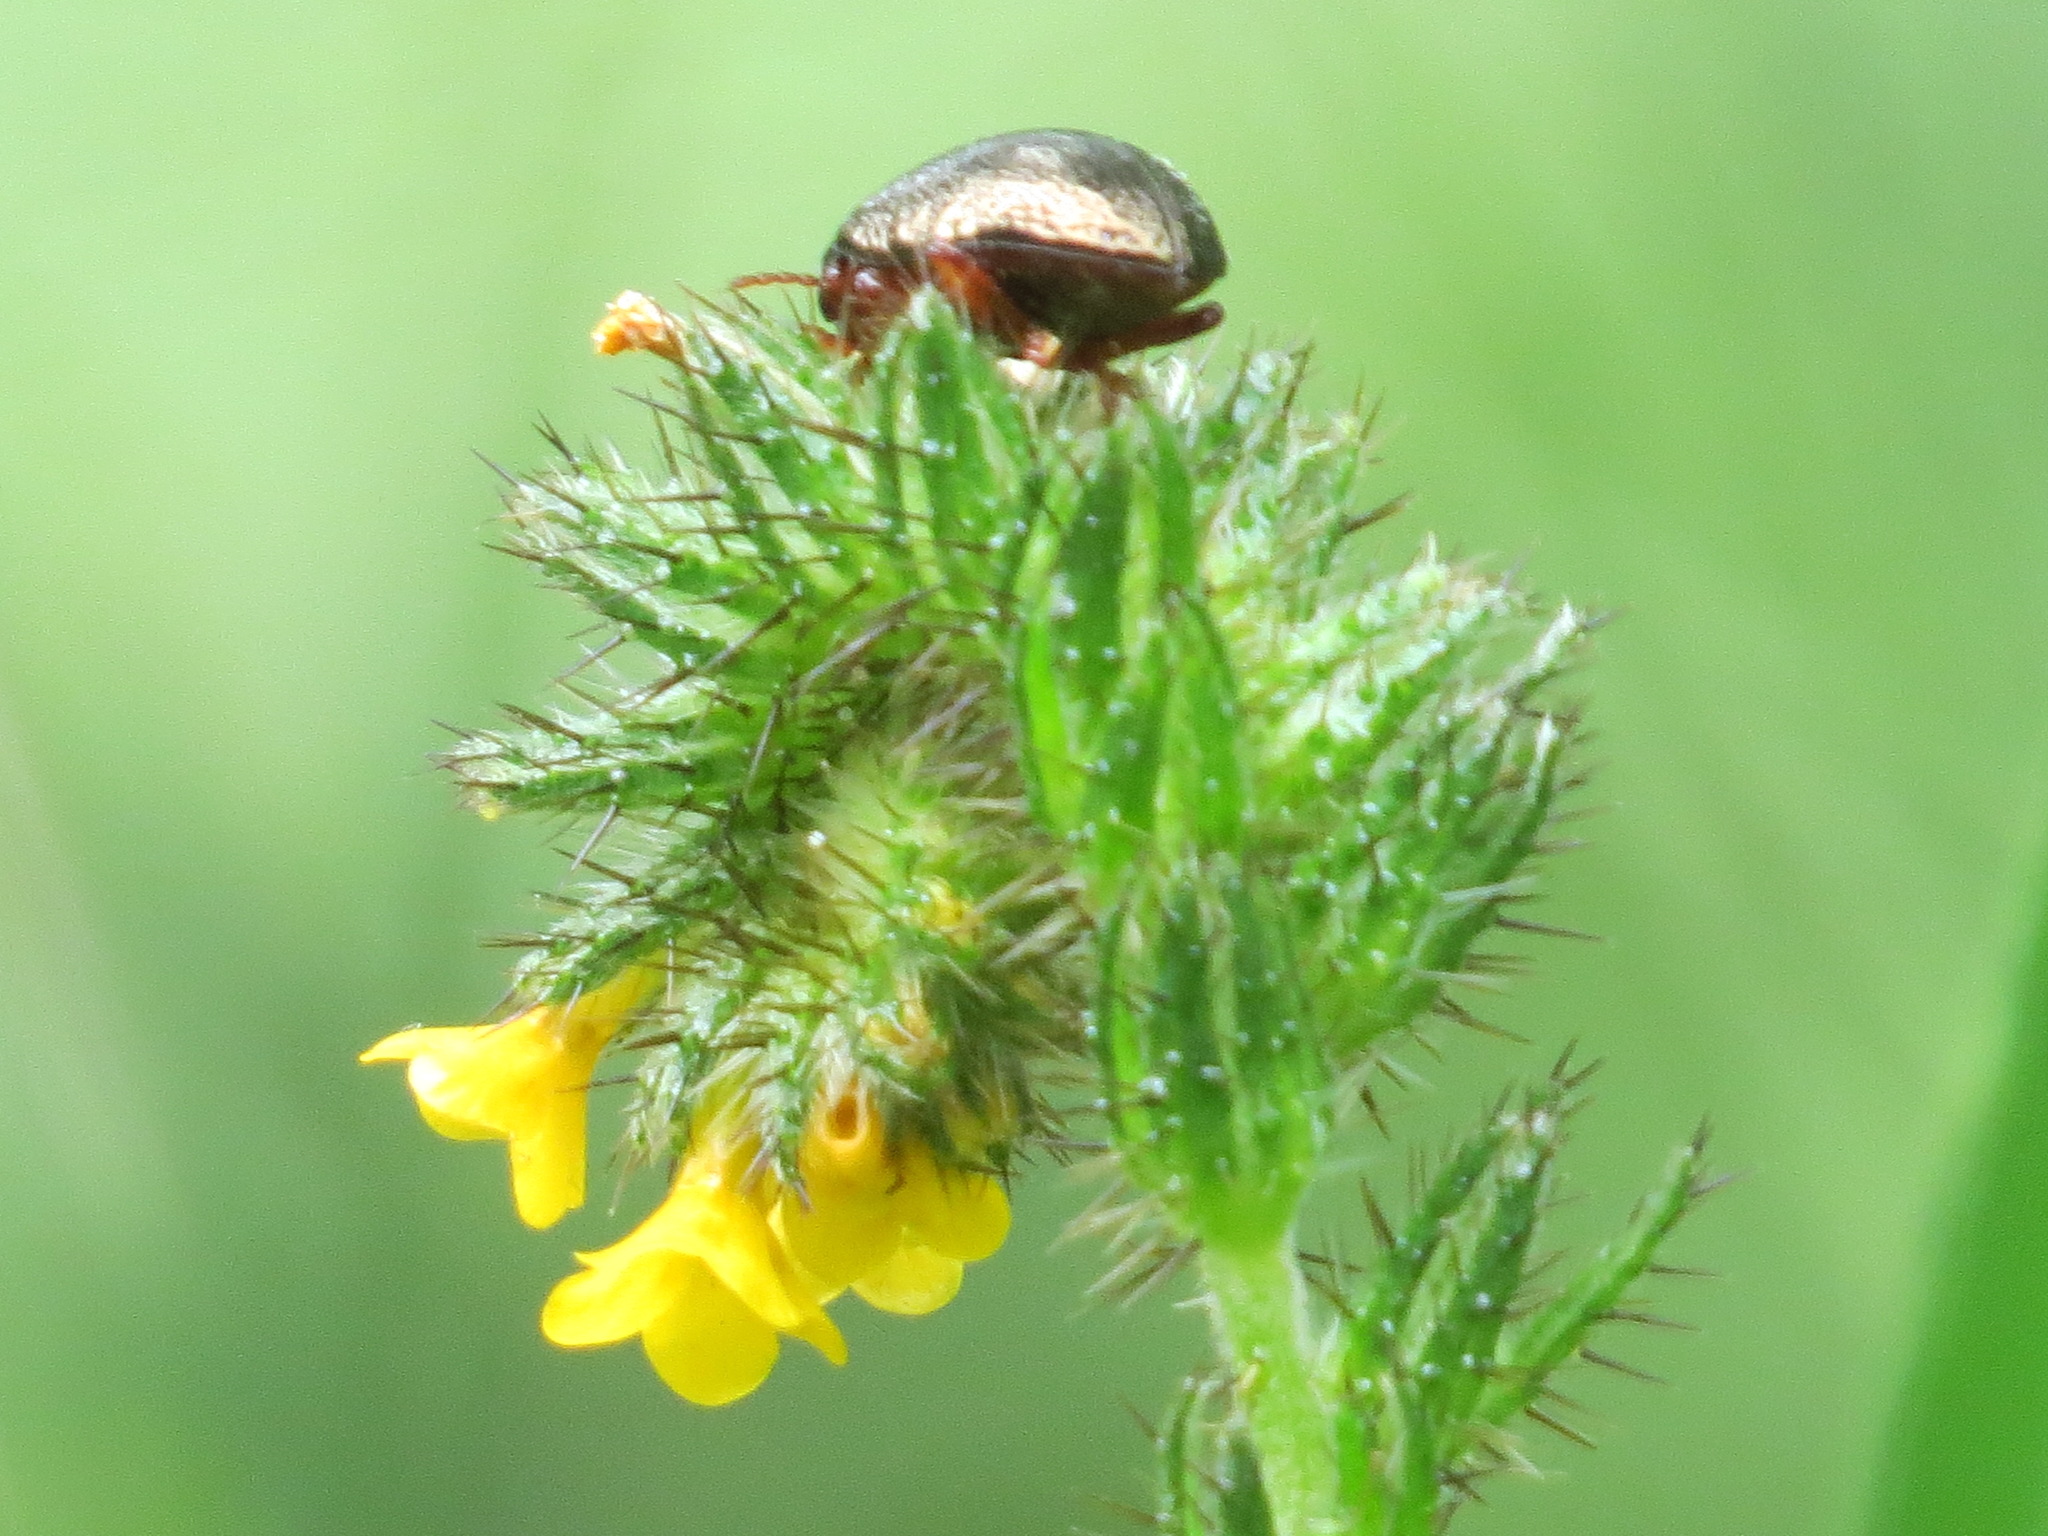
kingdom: Animalia
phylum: Arthropoda
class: Insecta
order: Coleoptera
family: Chrysomelidae
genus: Chrysolina
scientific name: Chrysolina bankii
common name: Leaf beetle
